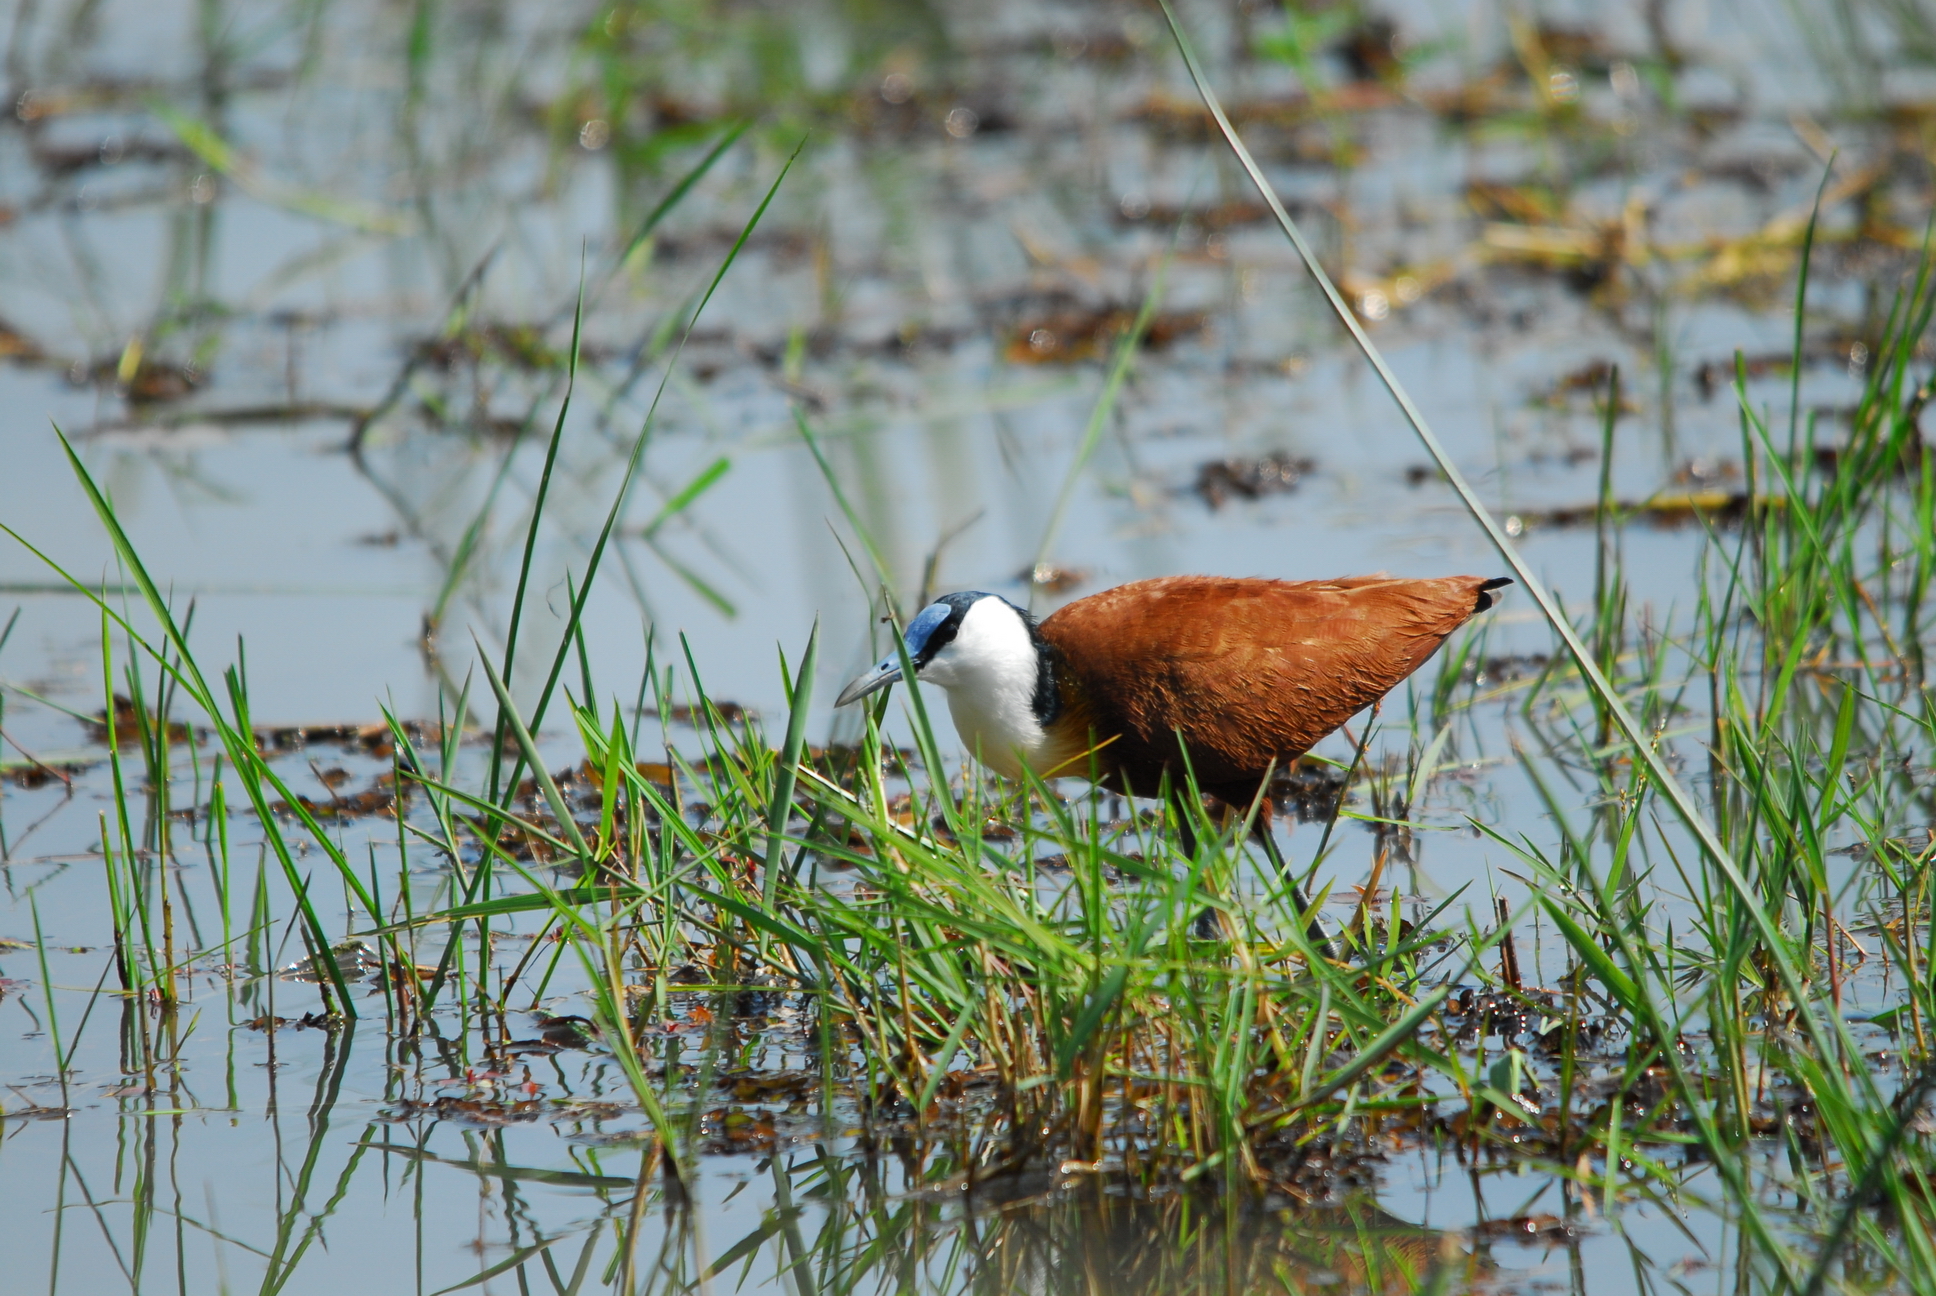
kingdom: Animalia
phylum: Chordata
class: Aves
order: Charadriiformes
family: Jacanidae
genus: Actophilornis
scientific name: Actophilornis africanus
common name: African jacana
